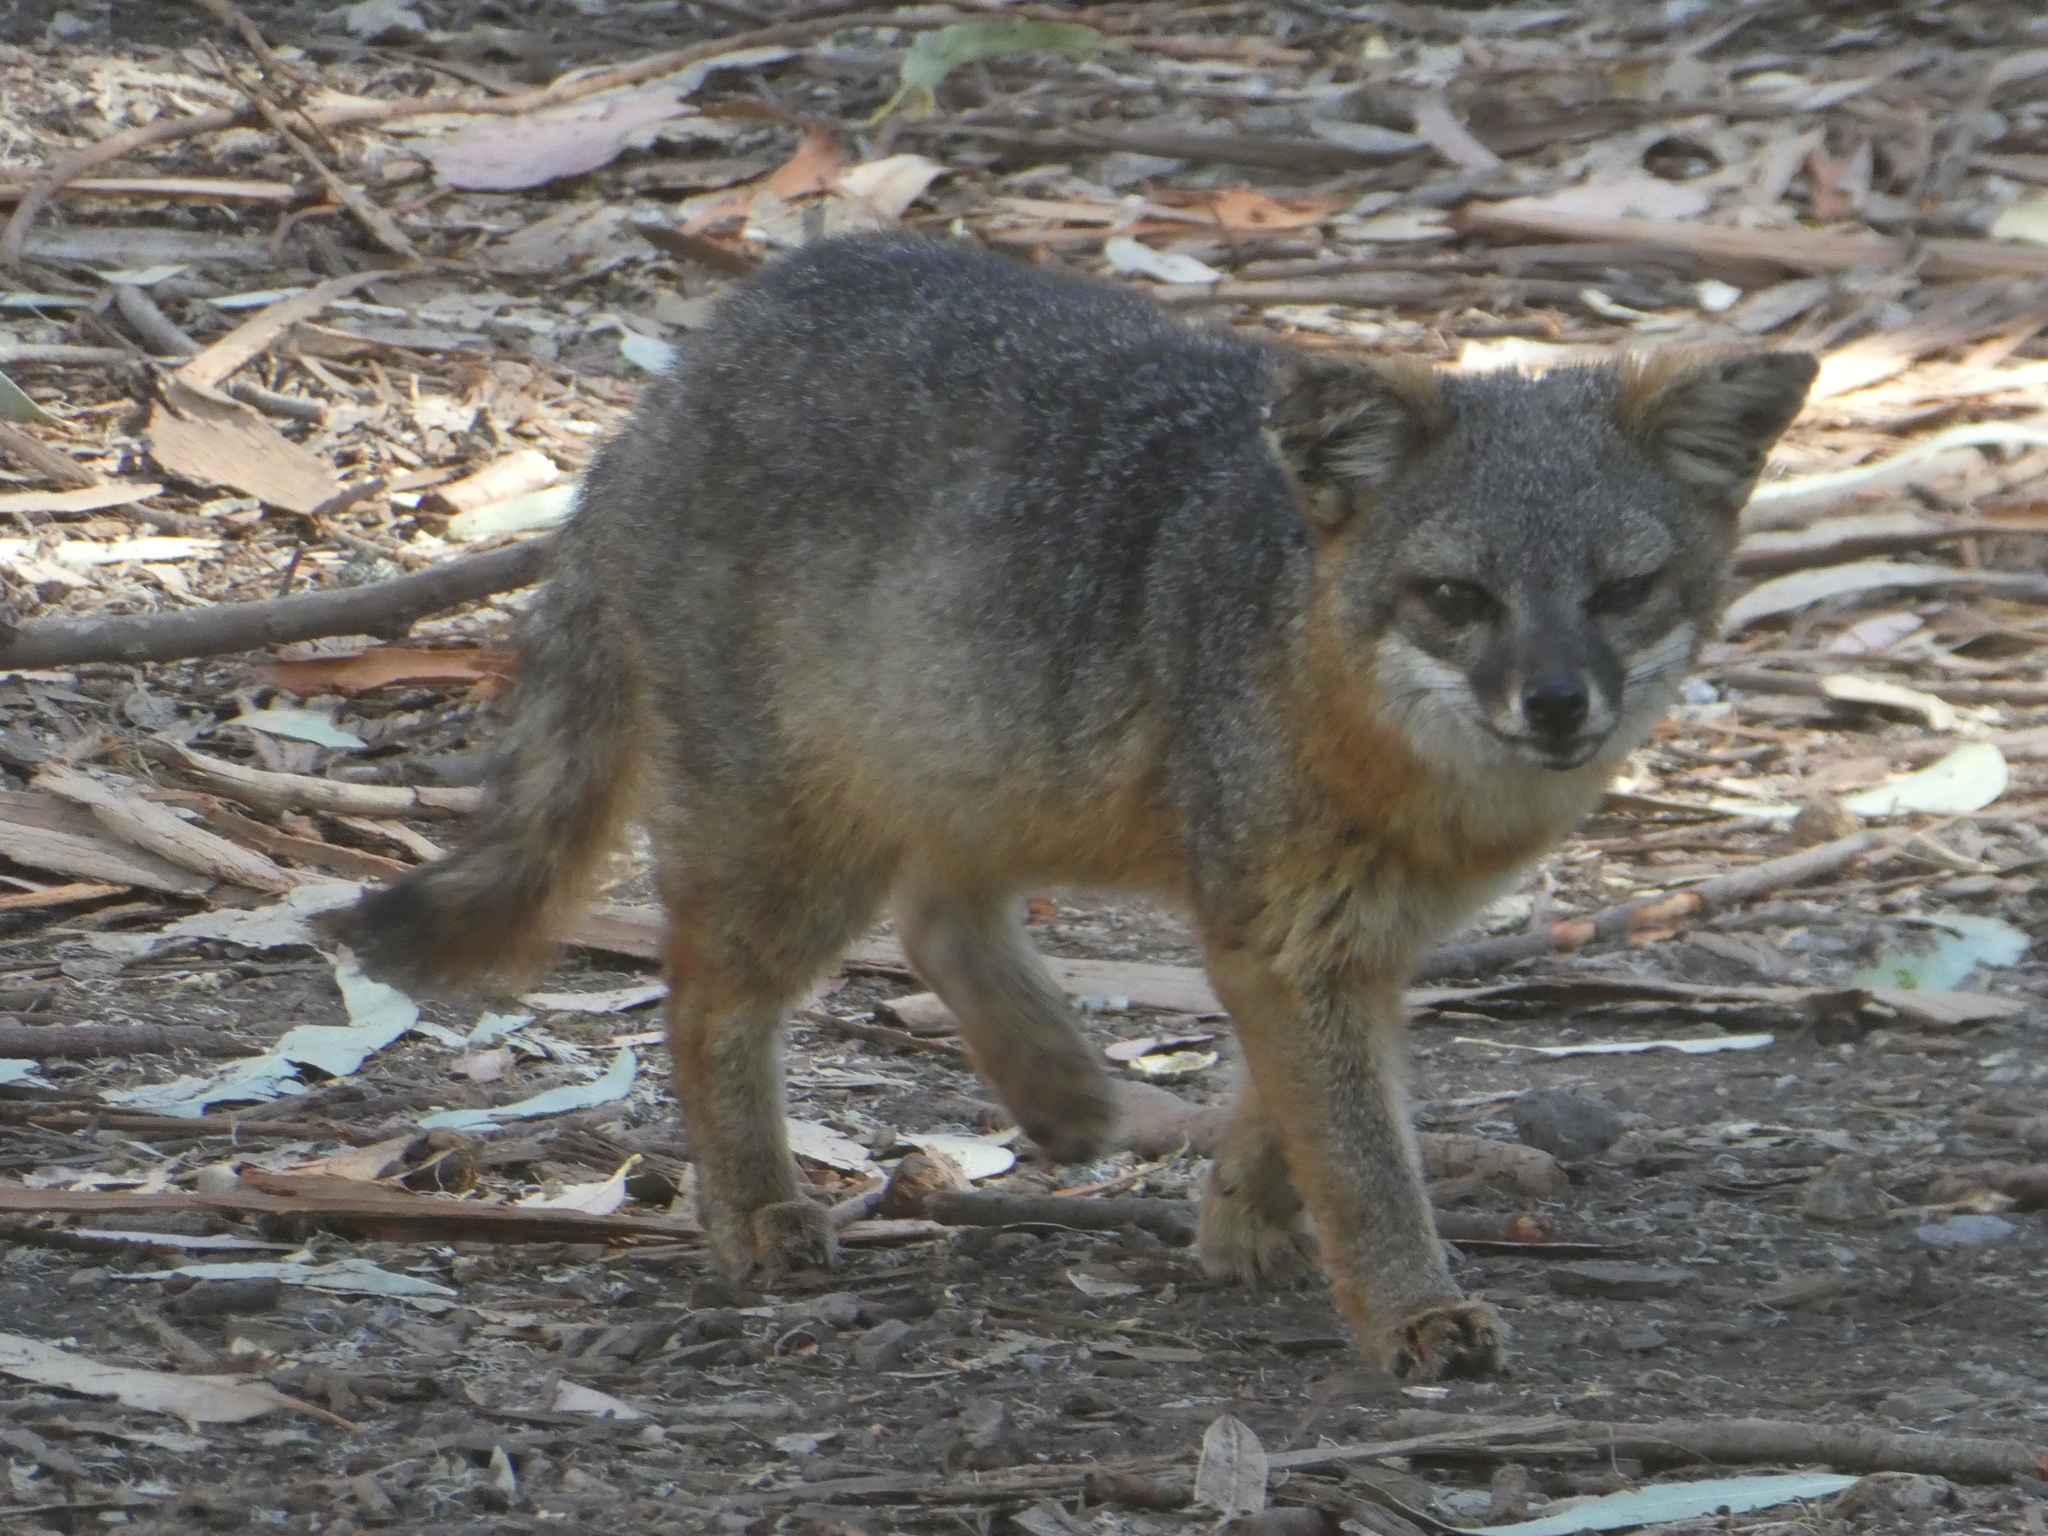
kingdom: Animalia
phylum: Chordata
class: Mammalia
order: Carnivora
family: Canidae
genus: Urocyon
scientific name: Urocyon littoralis
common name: Island gray fox
